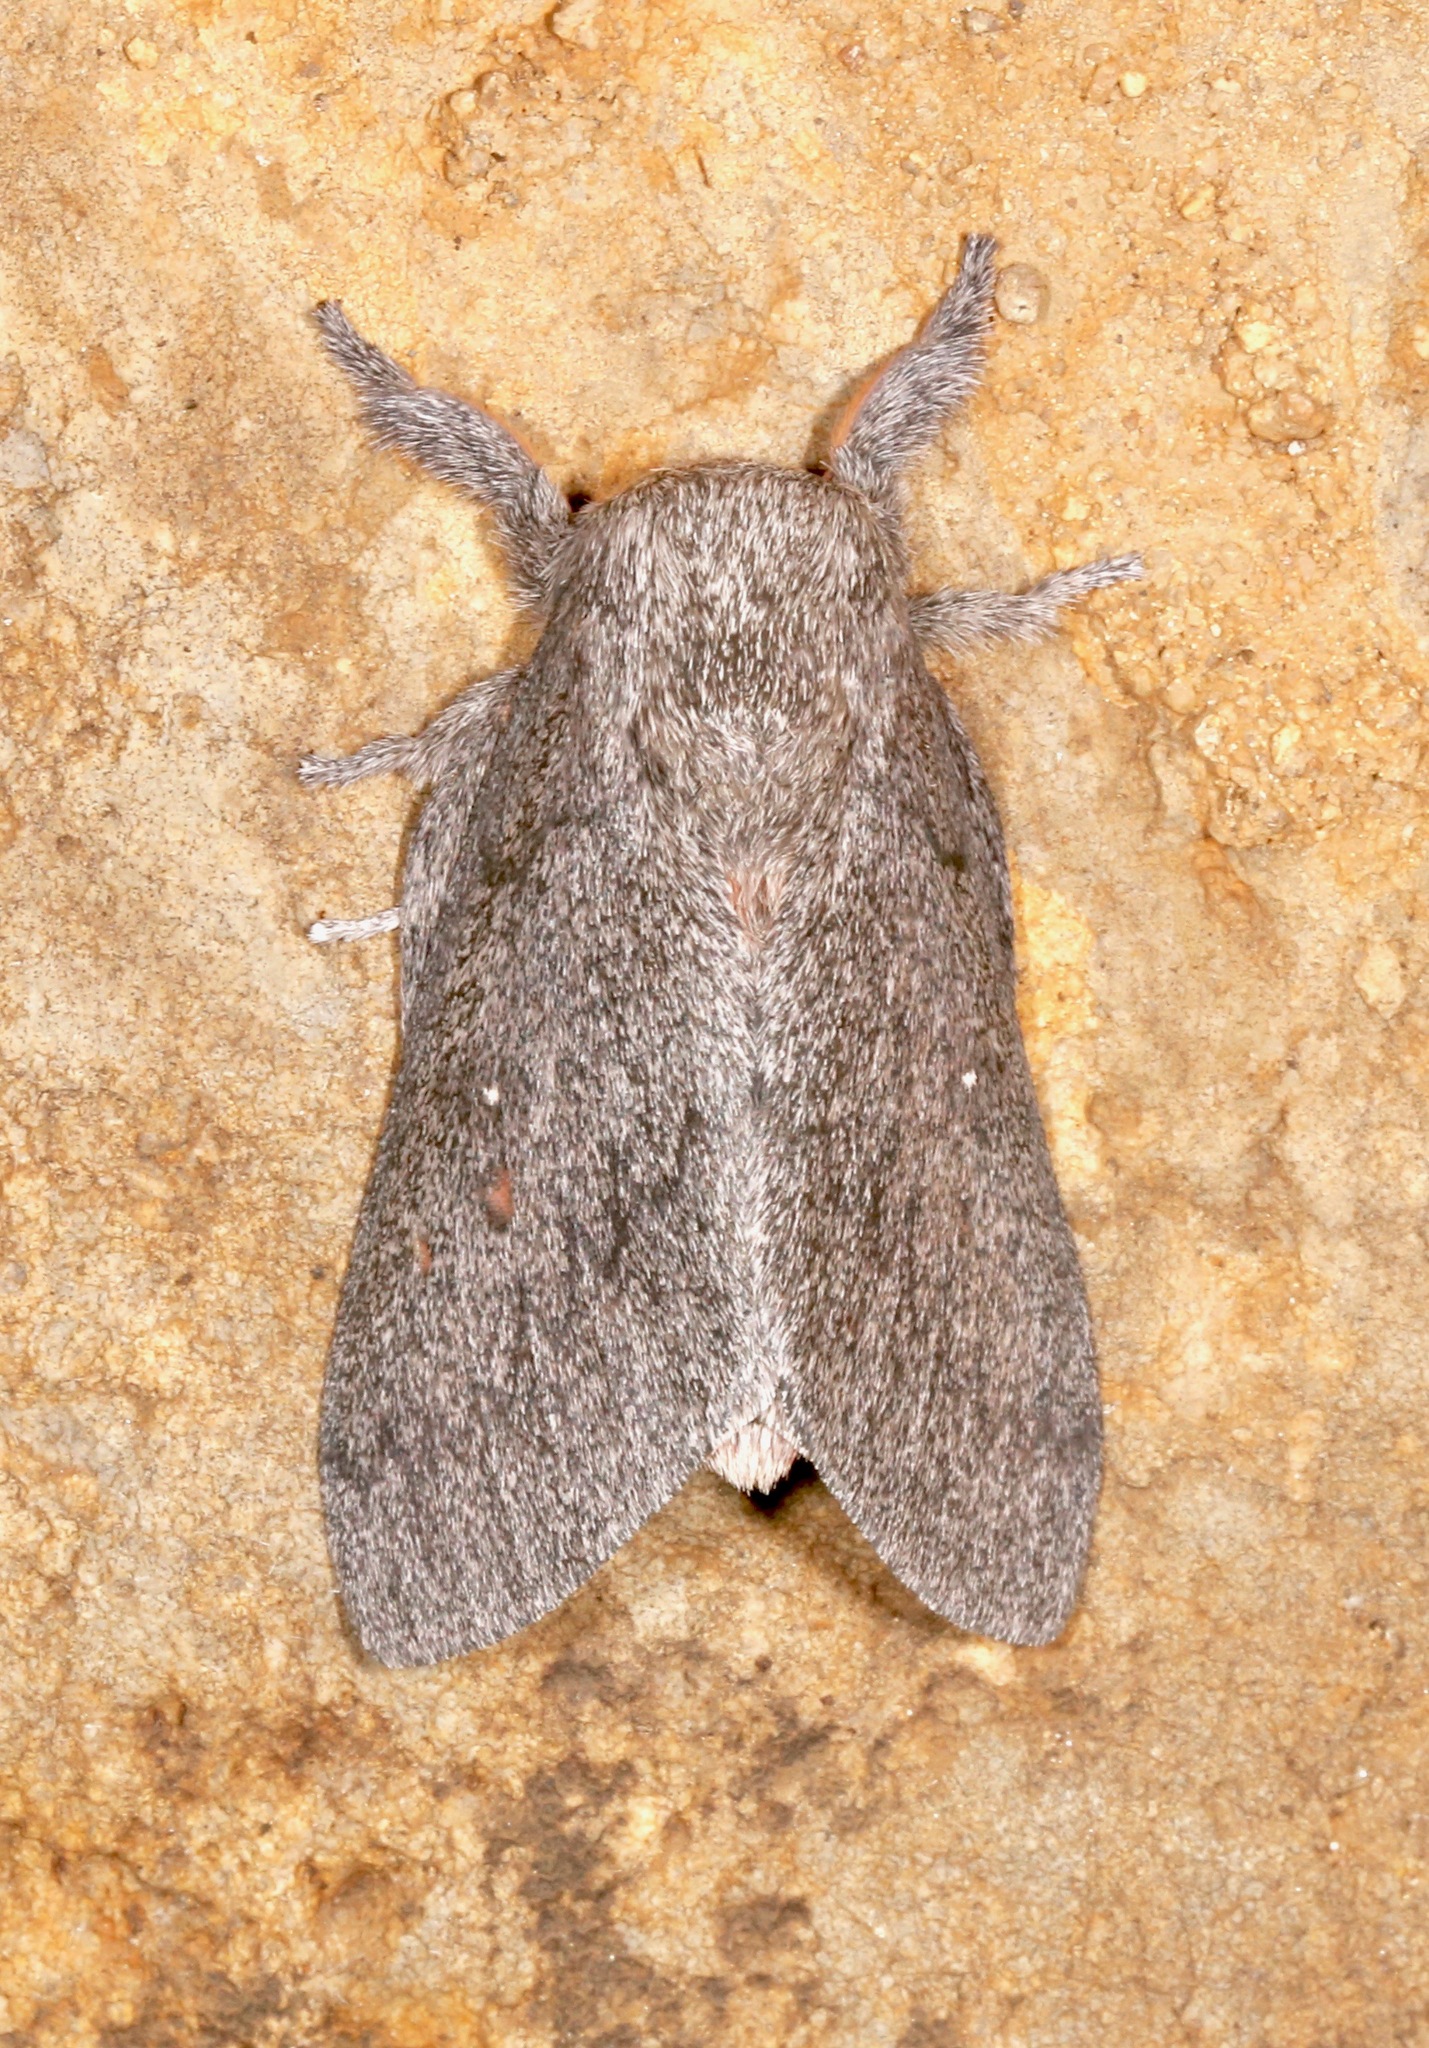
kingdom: Animalia
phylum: Arthropoda
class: Insecta
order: Lepidoptera
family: Saturniidae
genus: Syssphinx
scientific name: Syssphinx hubbardi
